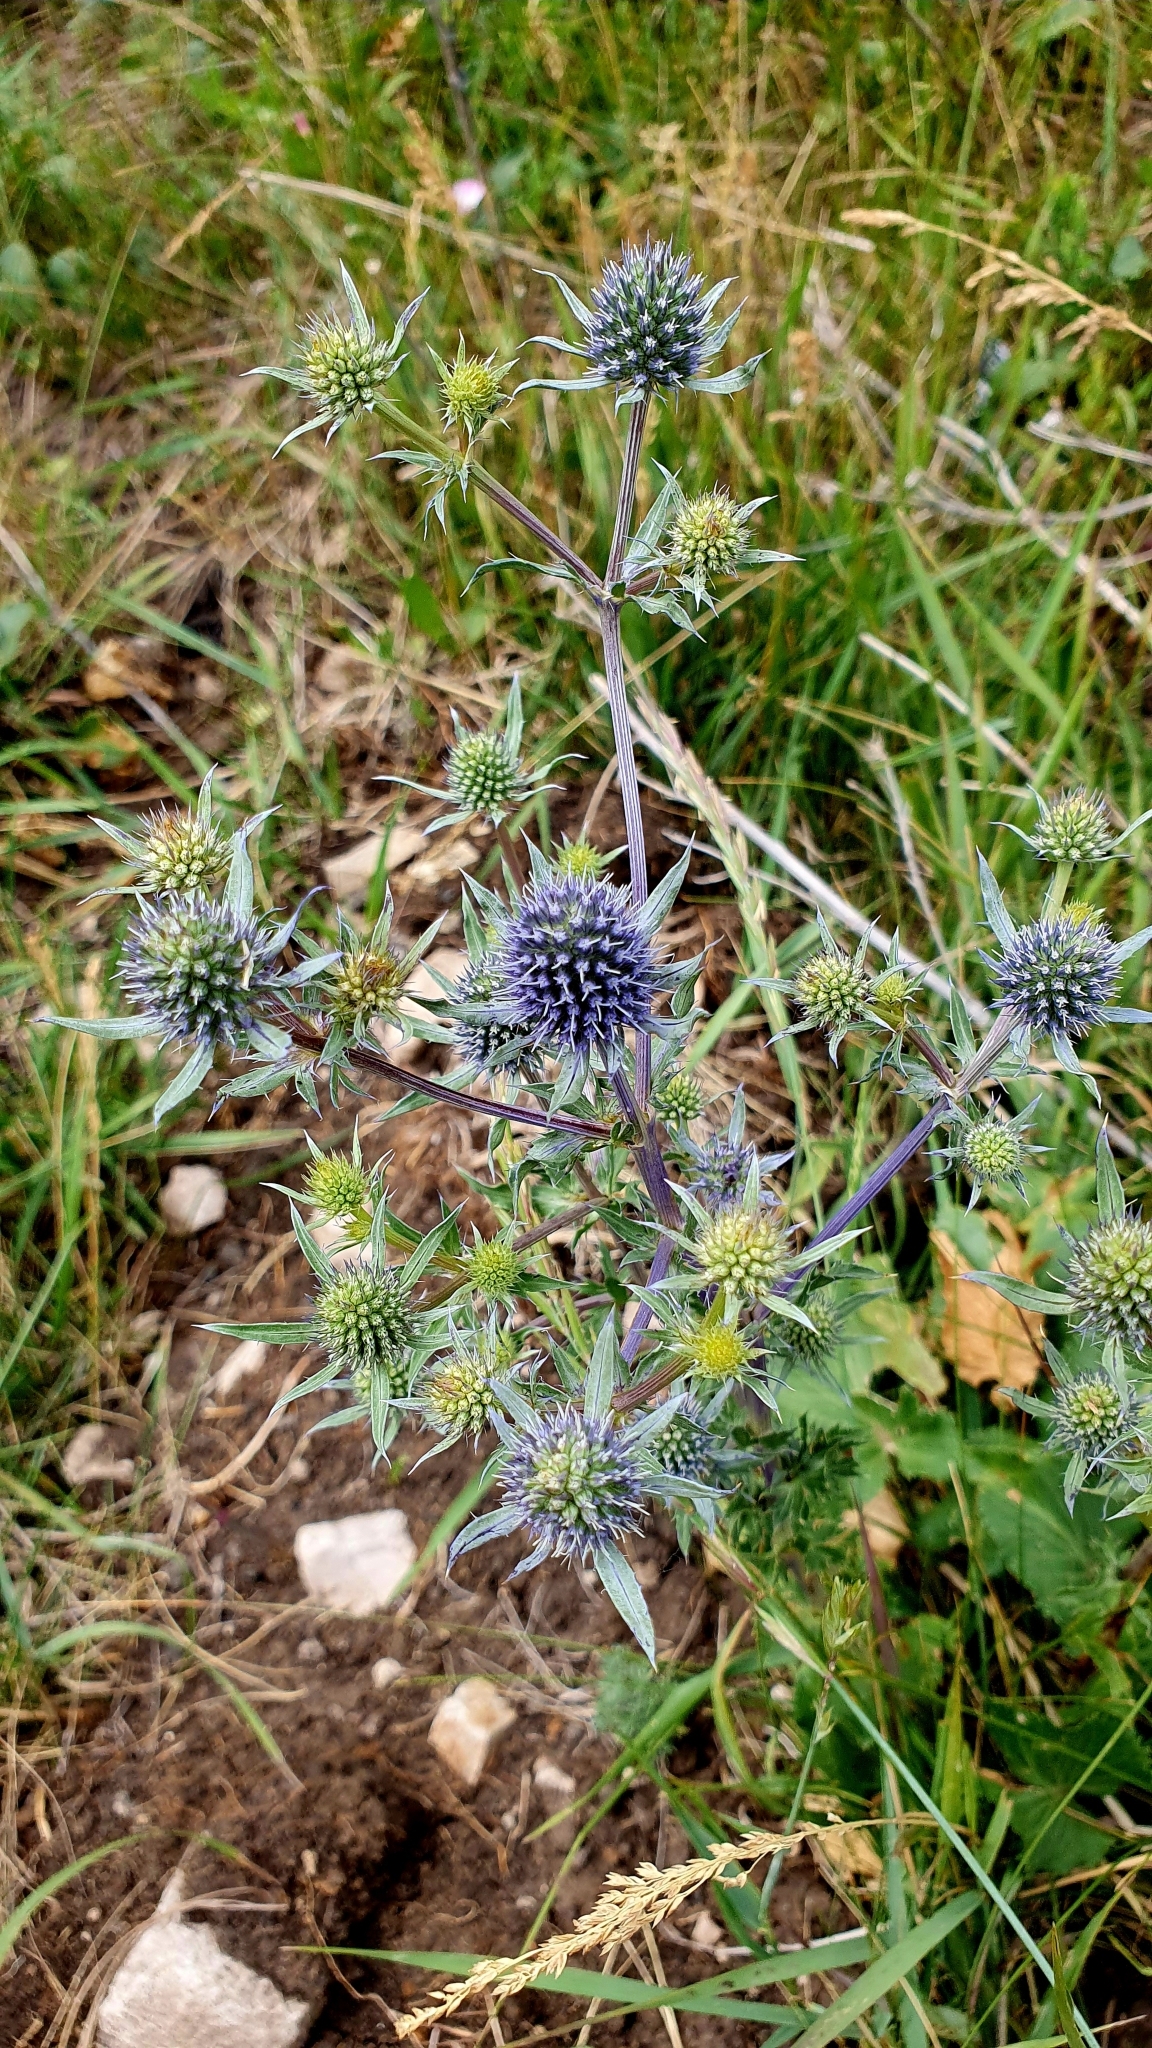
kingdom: Plantae
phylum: Tracheophyta
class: Magnoliopsida
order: Apiales
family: Apiaceae
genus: Eryngium
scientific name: Eryngium planum
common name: Blue eryngo
